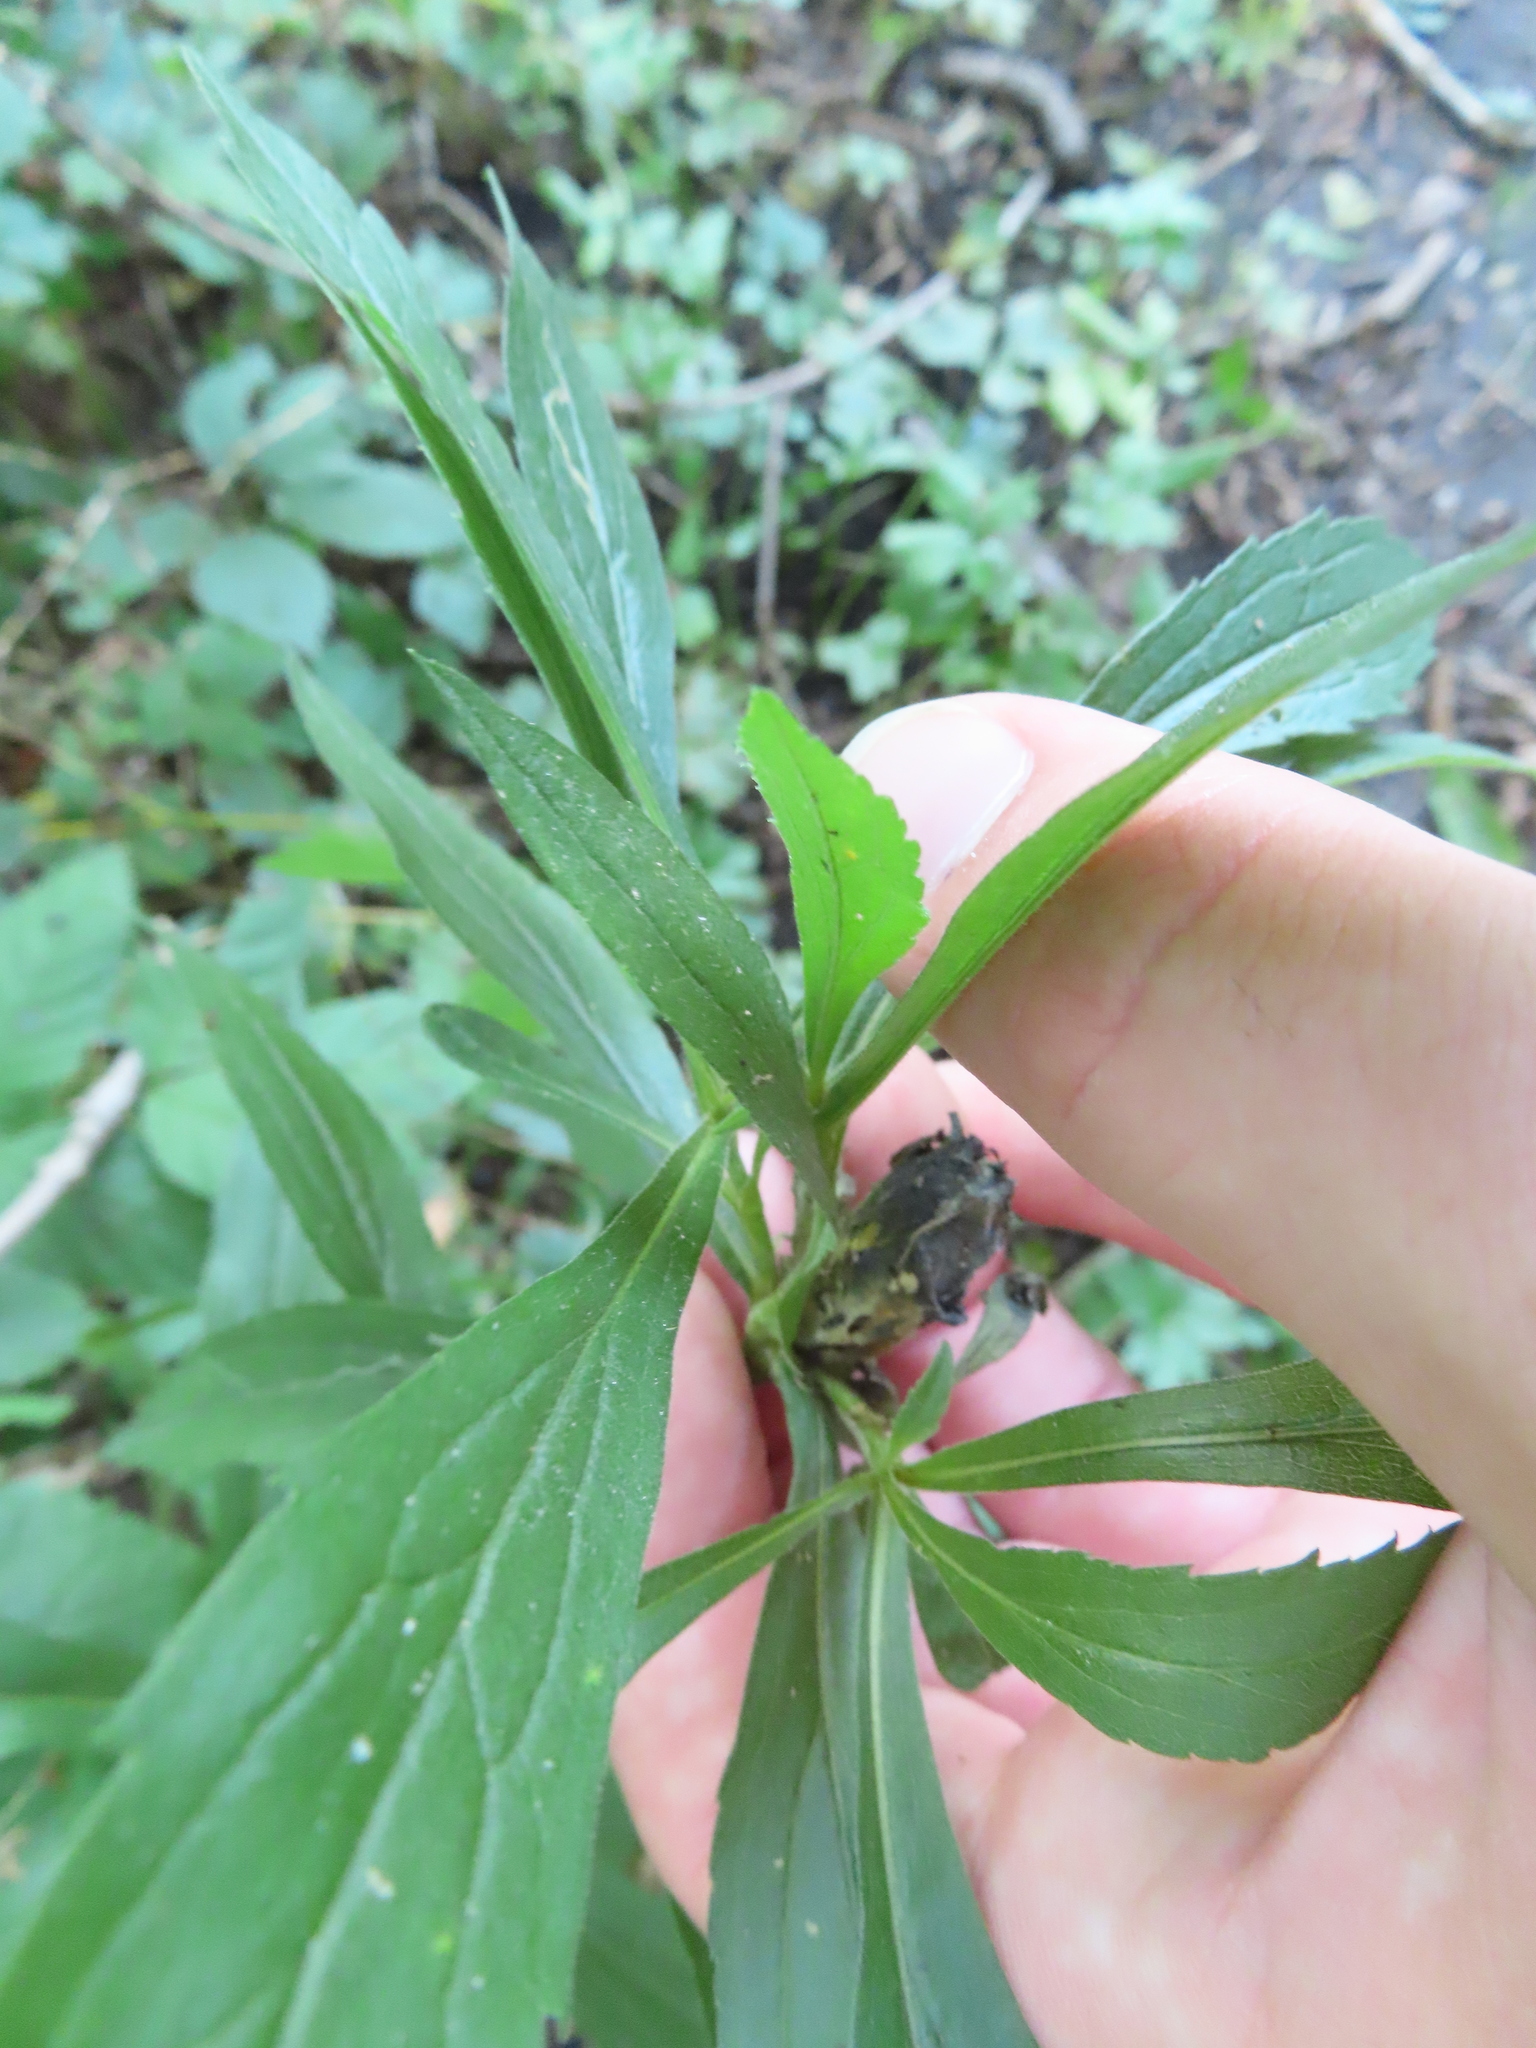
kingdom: Animalia
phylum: Arthropoda
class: Insecta
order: Diptera
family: Cecidomyiidae
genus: Dasineura
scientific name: Dasineura folliculi
